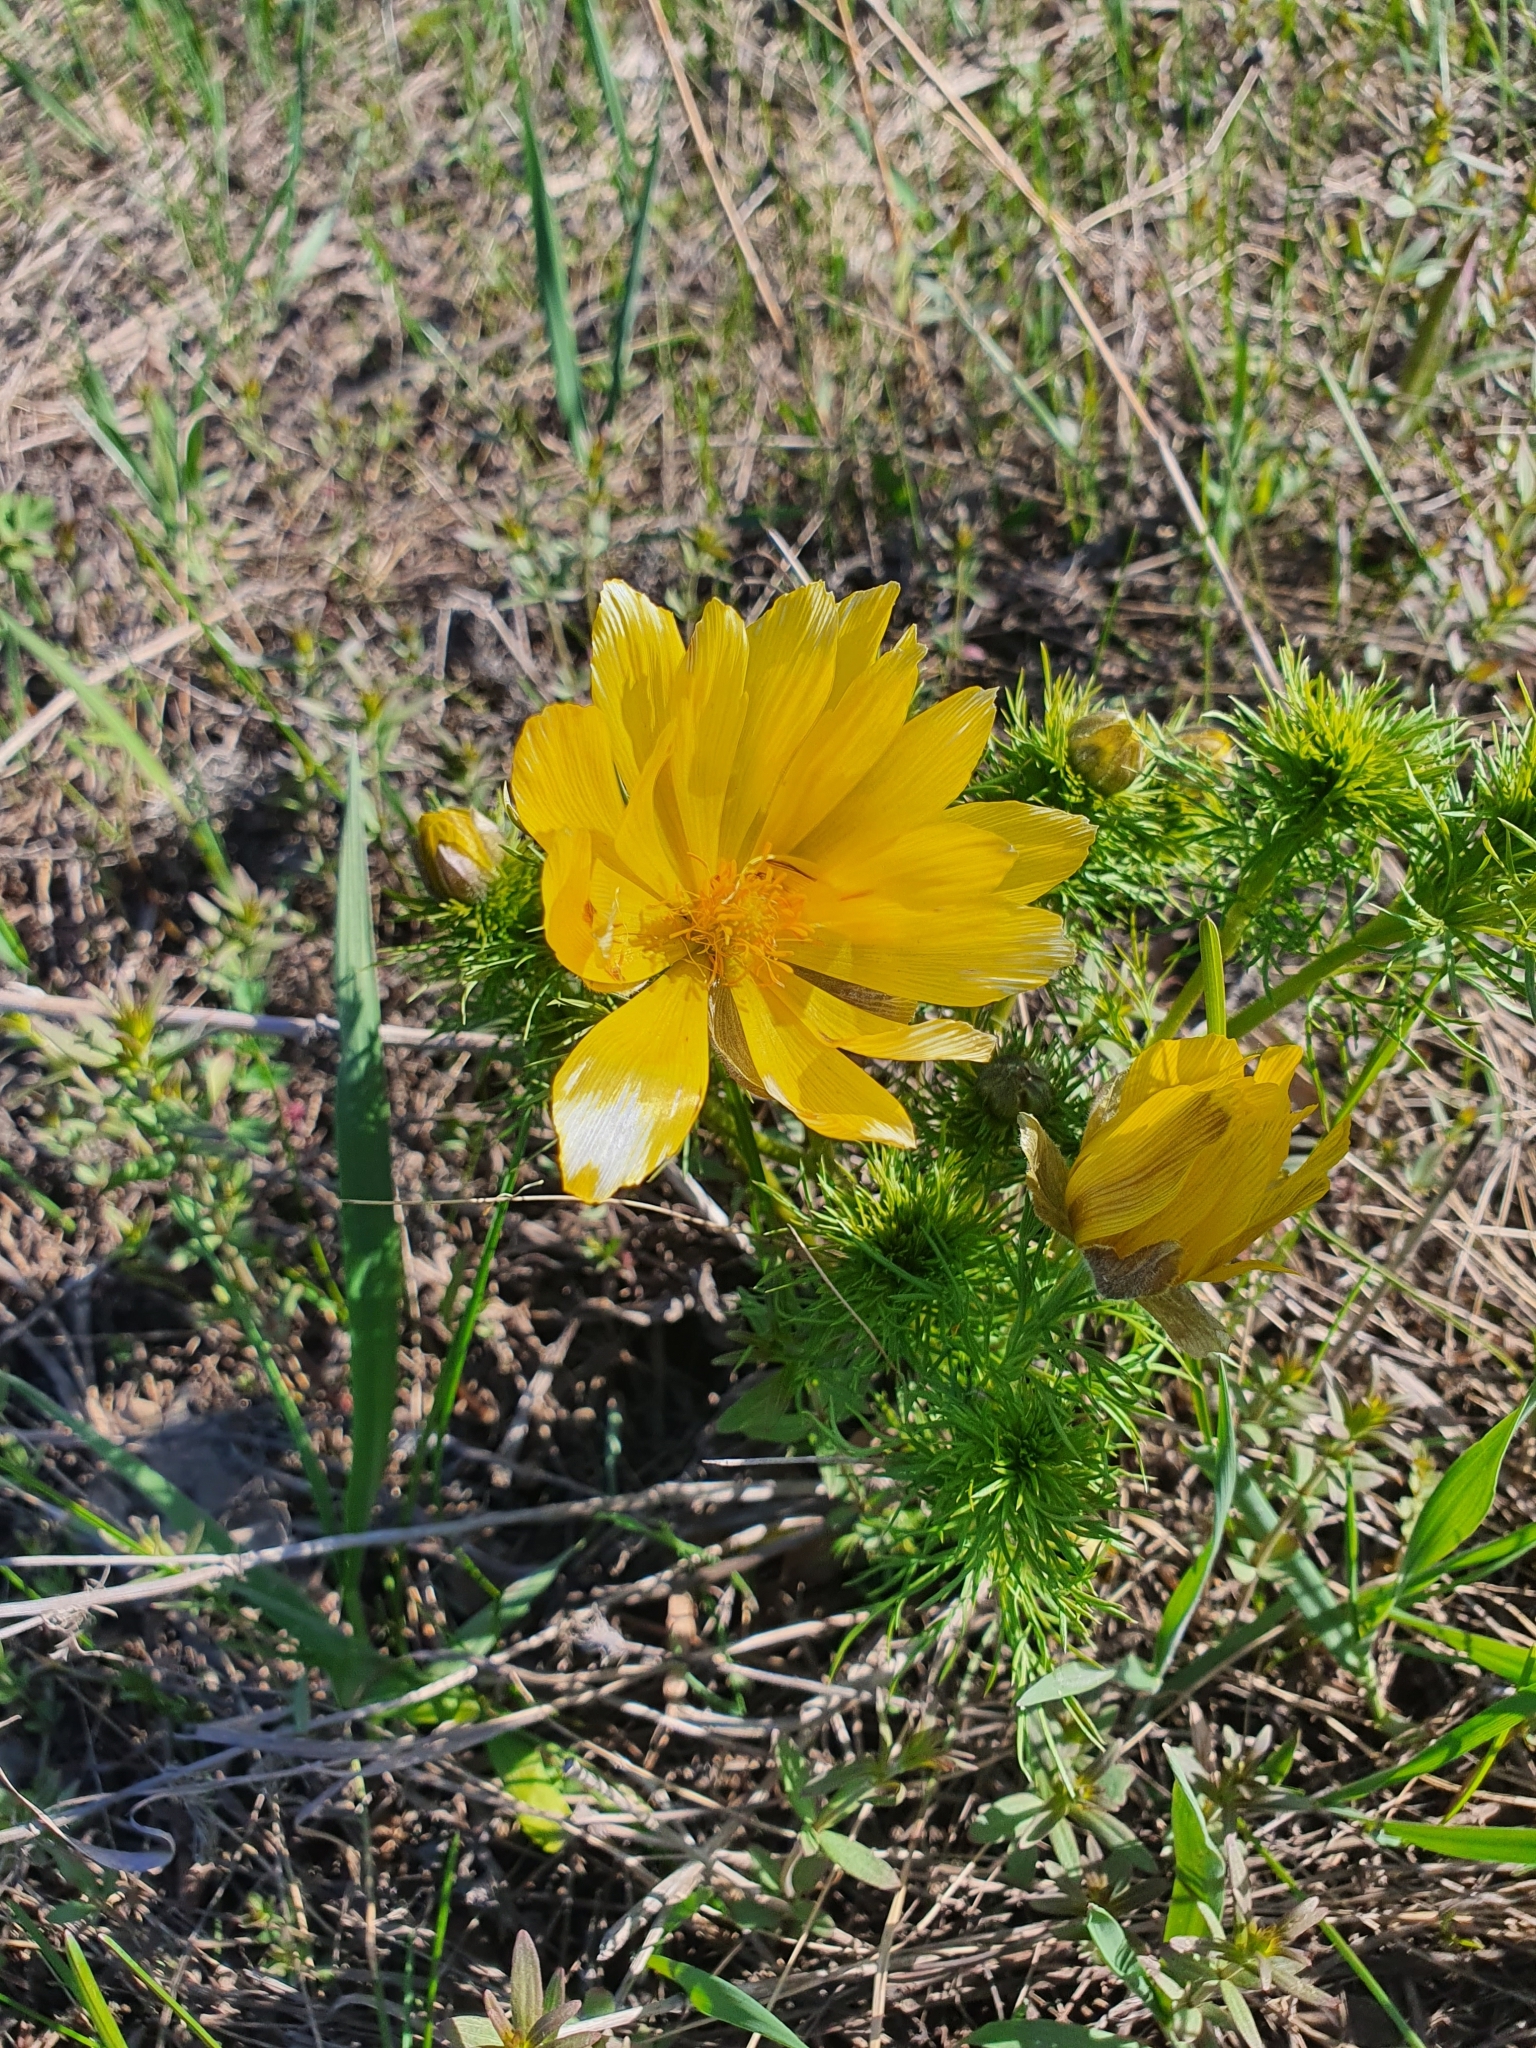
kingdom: Plantae
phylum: Tracheophyta
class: Magnoliopsida
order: Ranunculales
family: Ranunculaceae
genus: Adonis
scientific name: Adonis vernalis
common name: Yellow pheasants-eye
